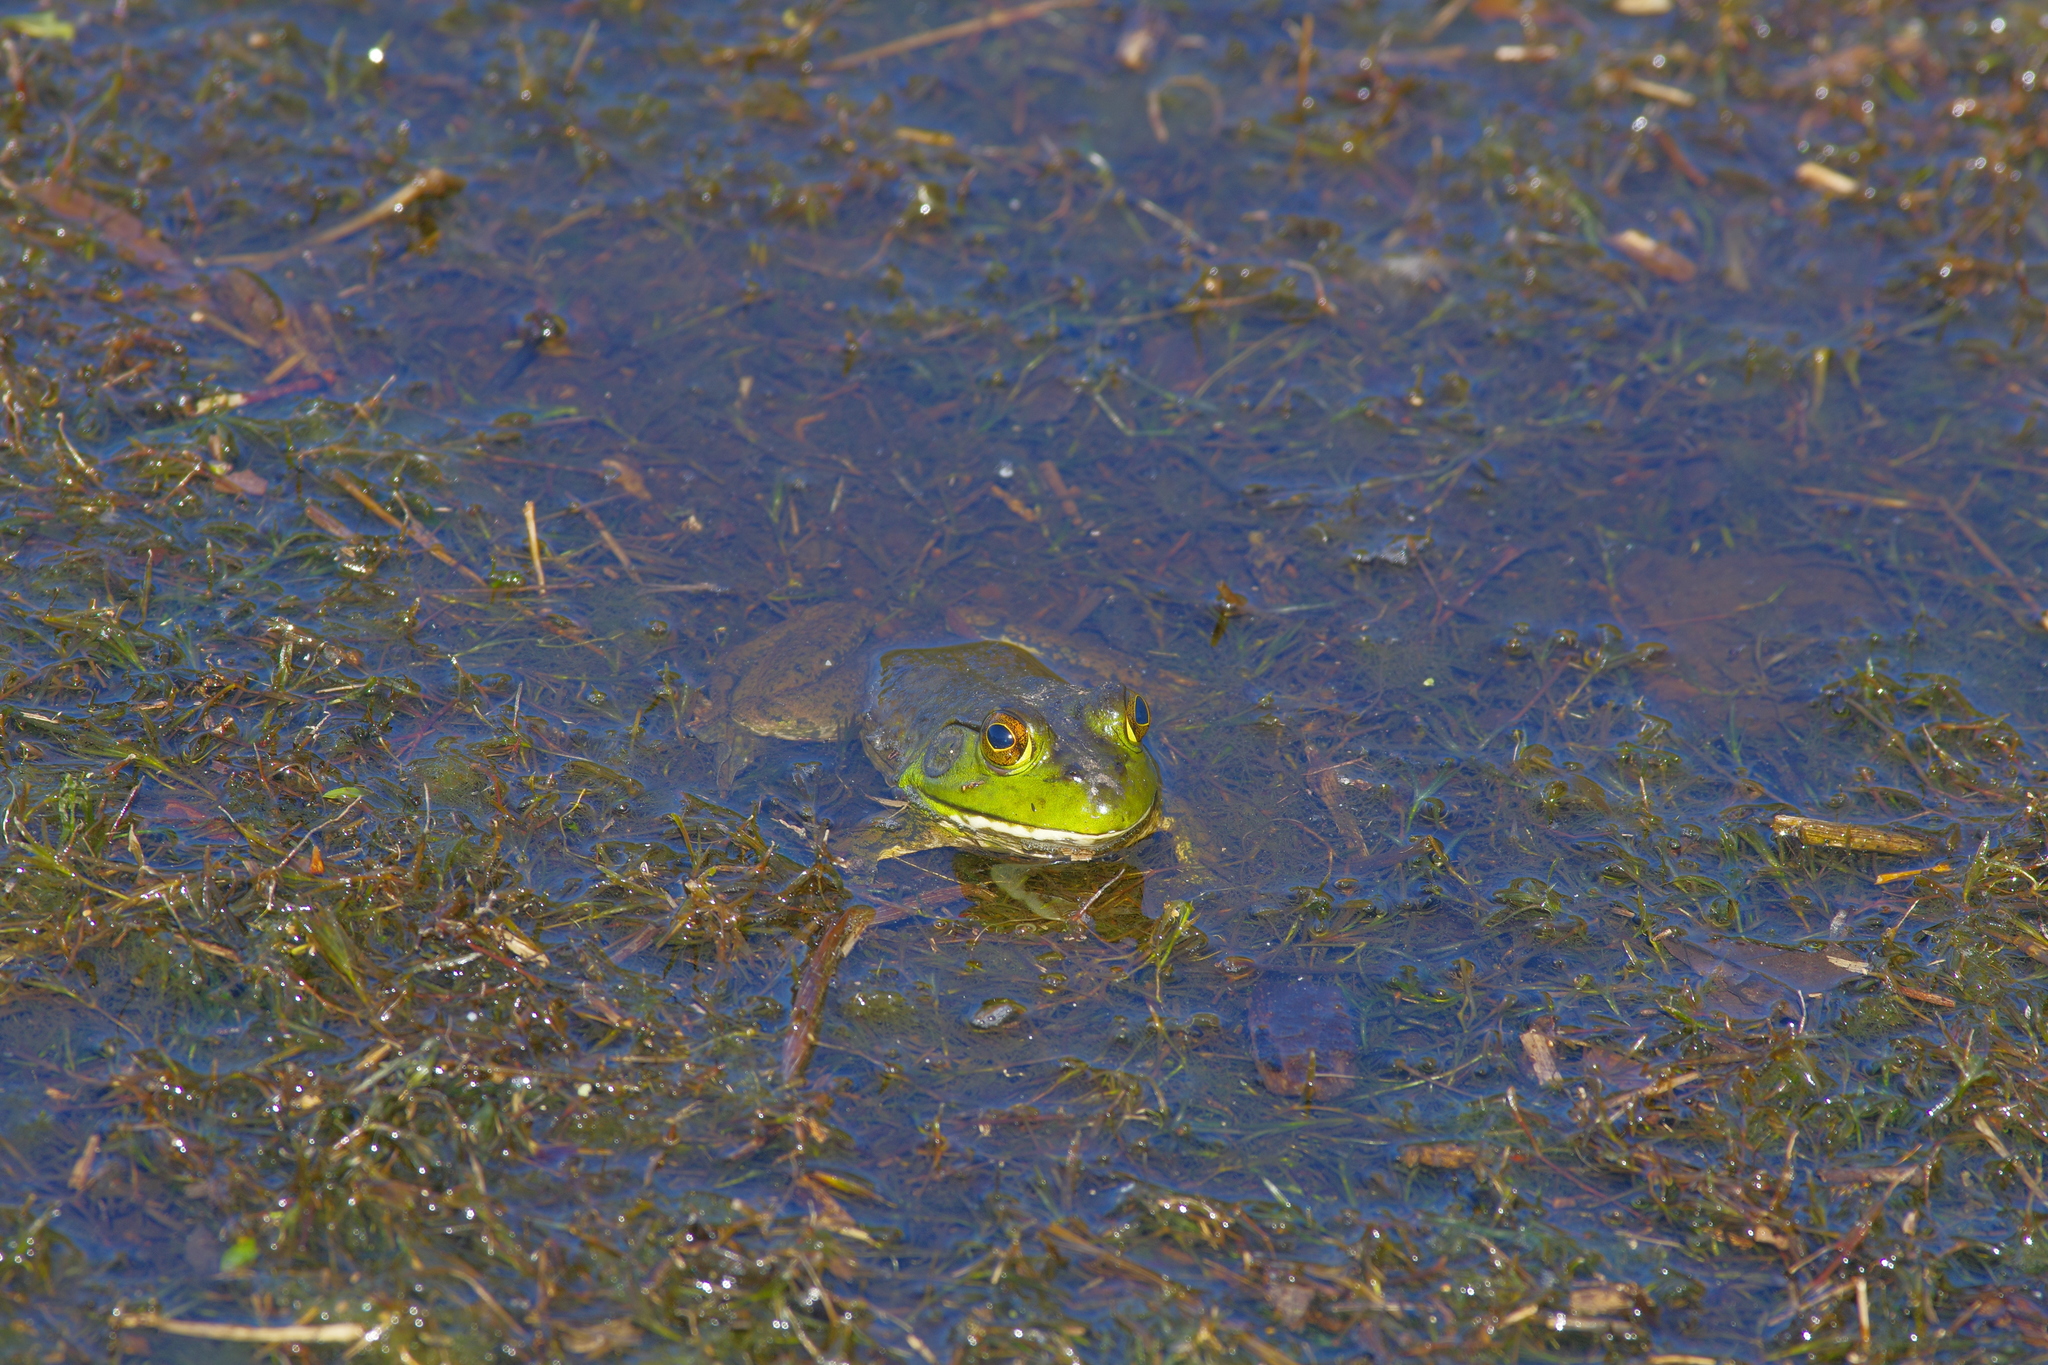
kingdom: Animalia
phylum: Chordata
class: Amphibia
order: Anura
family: Ranidae
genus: Lithobates
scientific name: Lithobates catesbeianus
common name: American bullfrog
